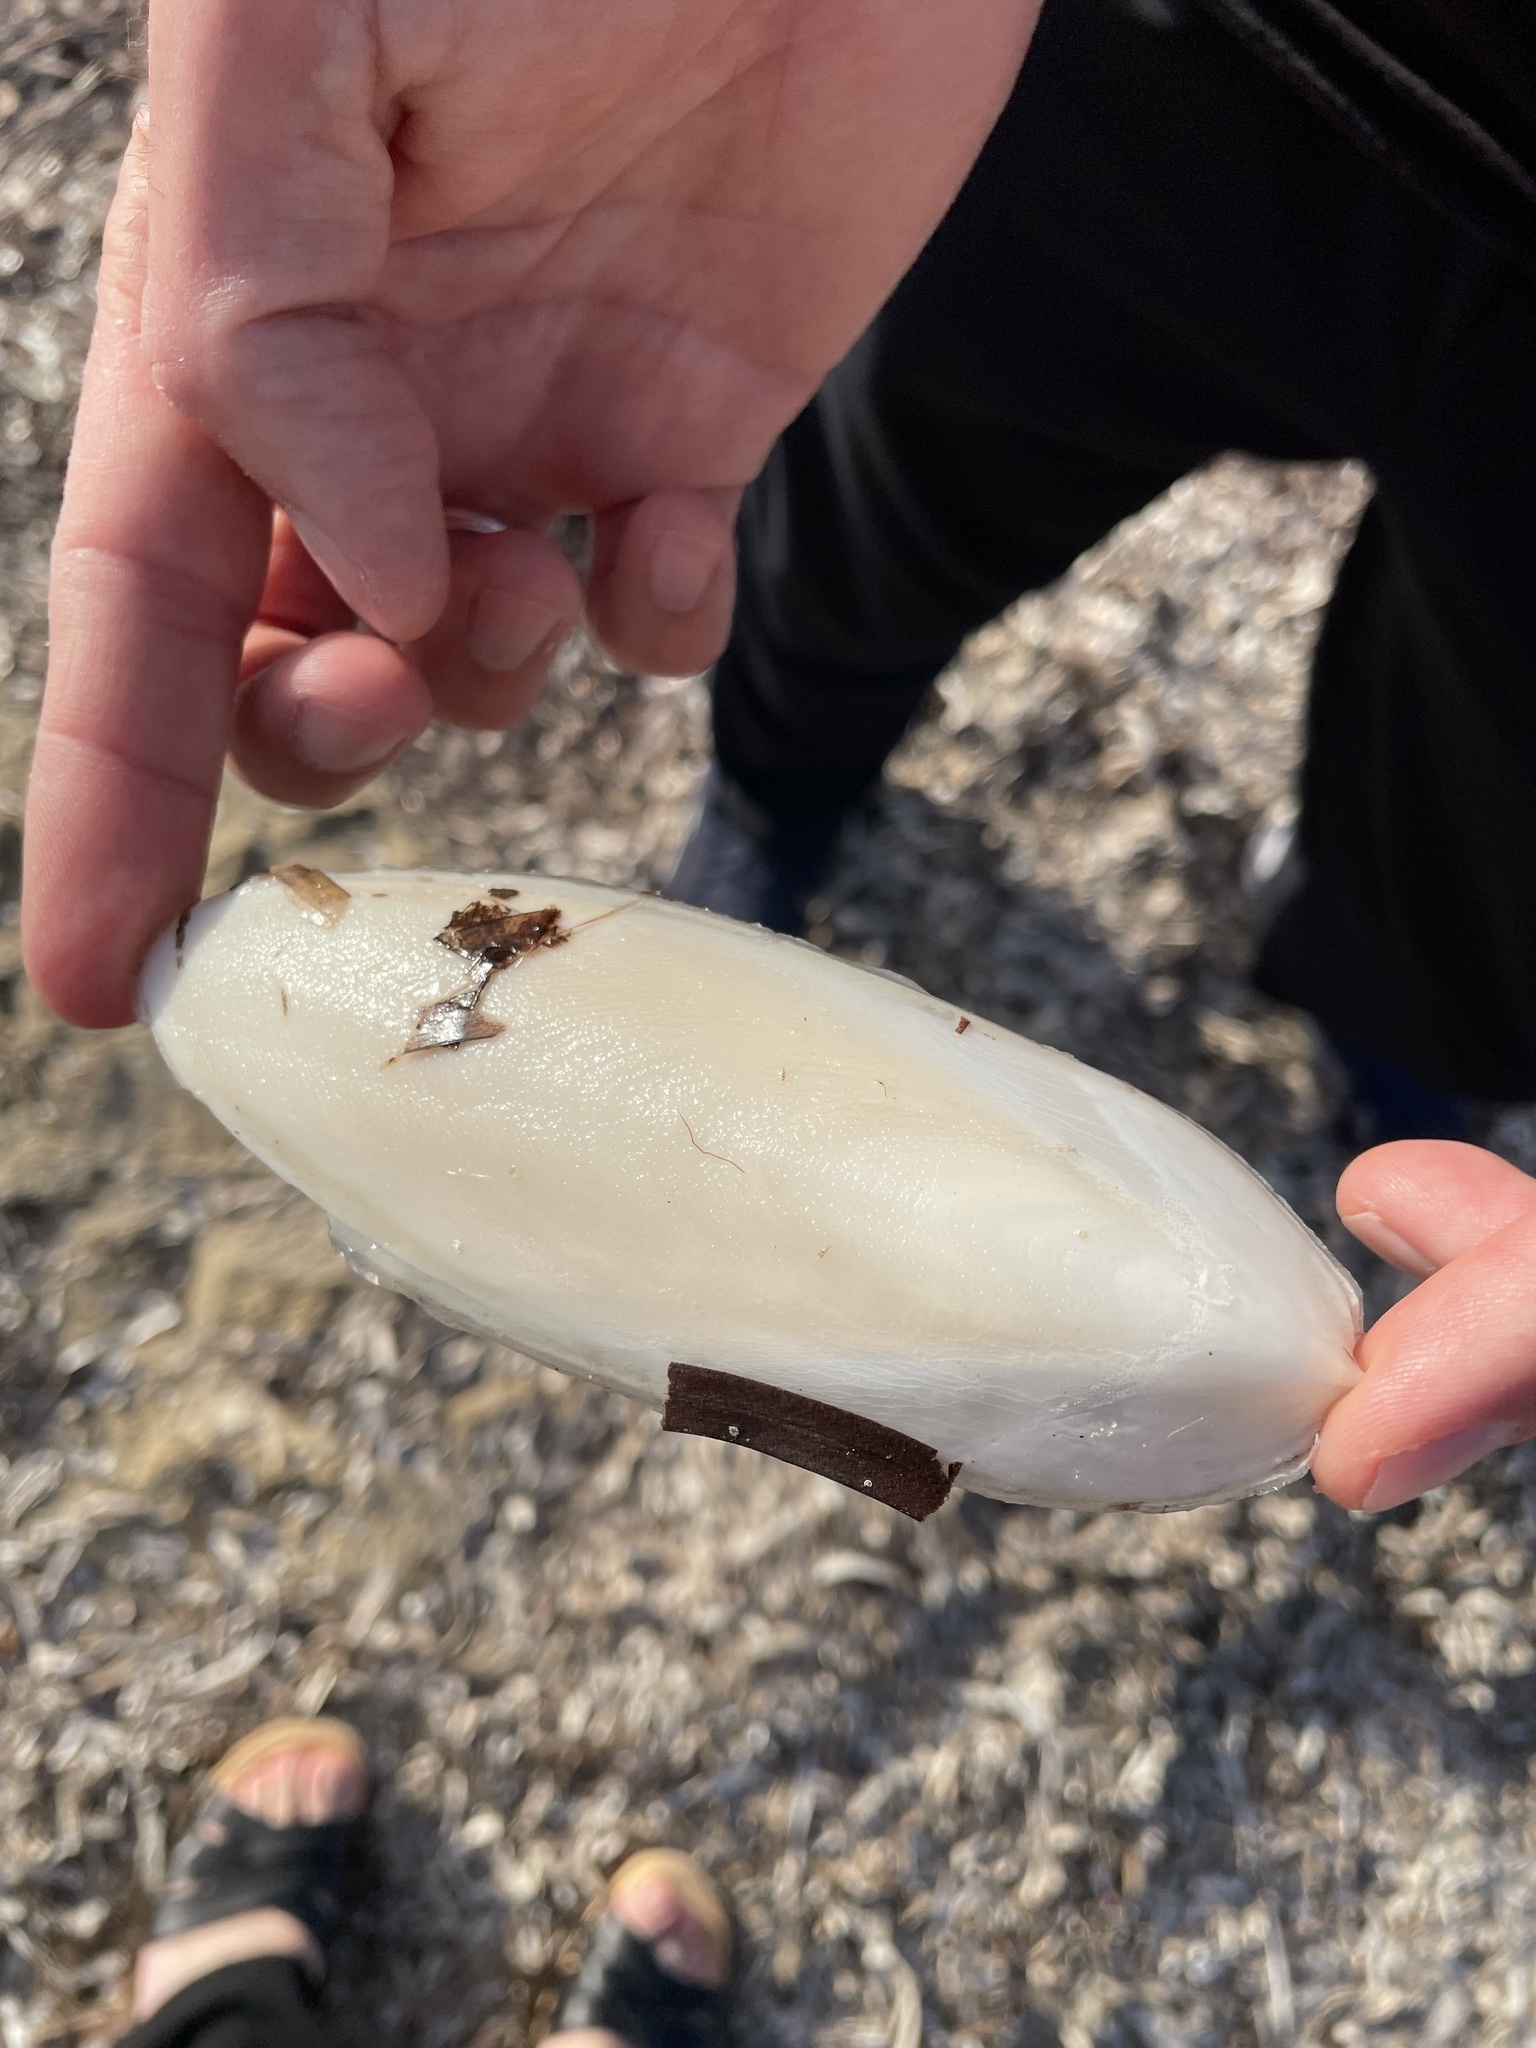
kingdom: Animalia
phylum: Mollusca
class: Cephalopoda
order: Sepiida
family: Sepiidae
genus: Sepia
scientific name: Sepia officinalis
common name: Common cuttlefish
